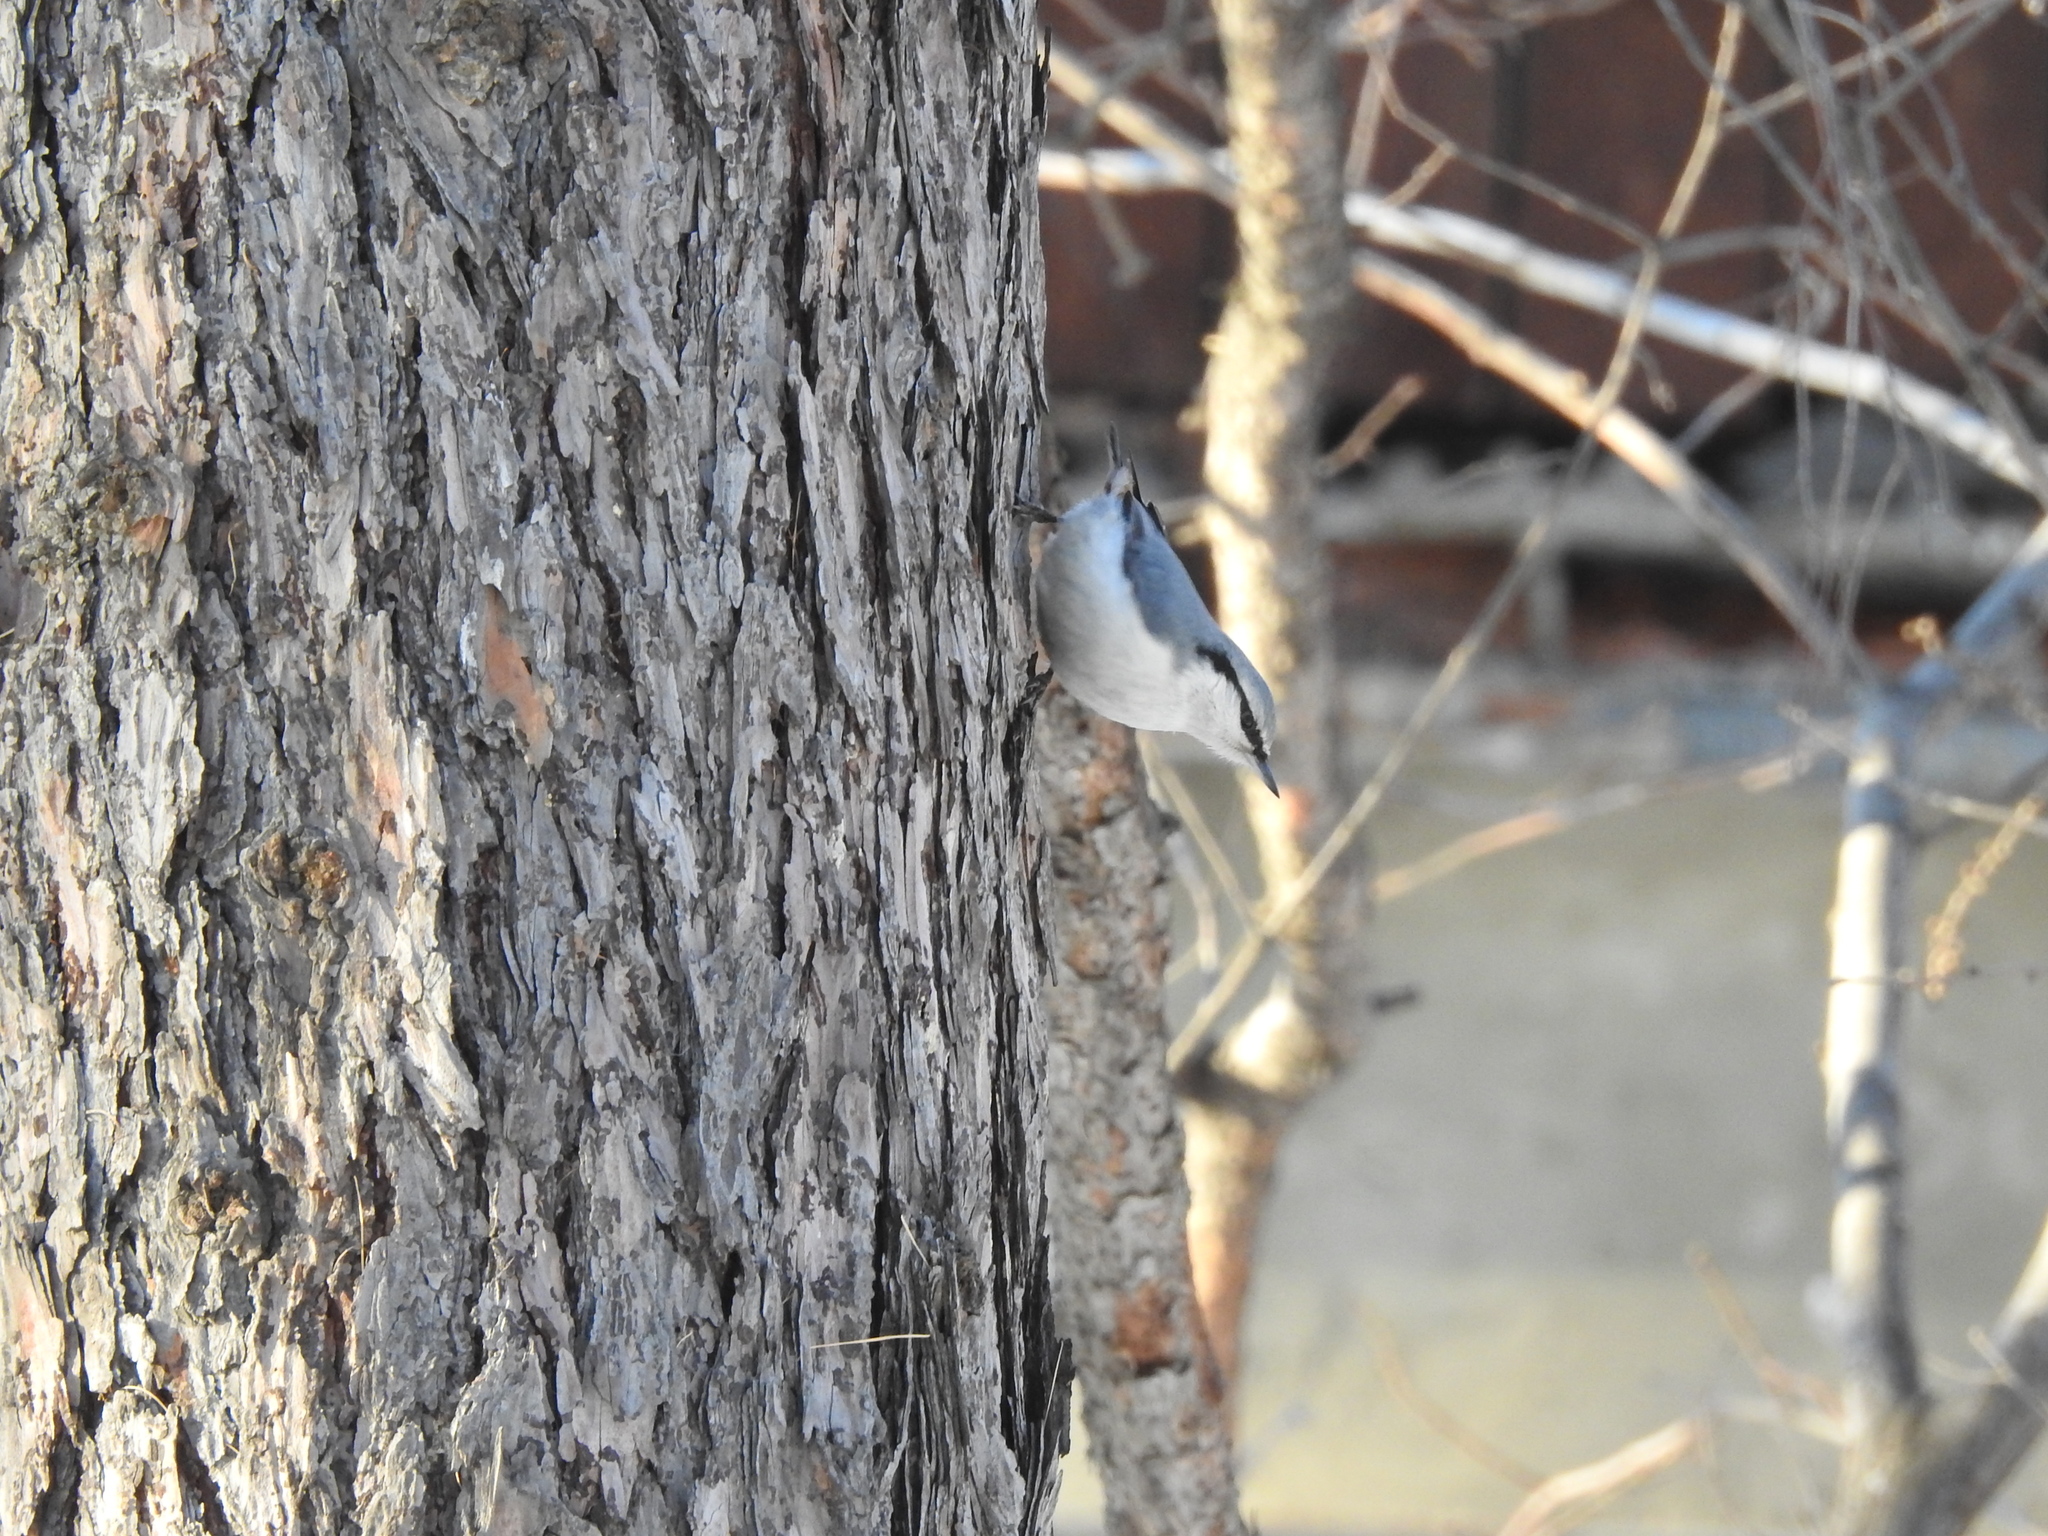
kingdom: Animalia
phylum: Chordata
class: Aves
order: Passeriformes
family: Sittidae
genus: Sitta
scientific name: Sitta europaea
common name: Eurasian nuthatch
